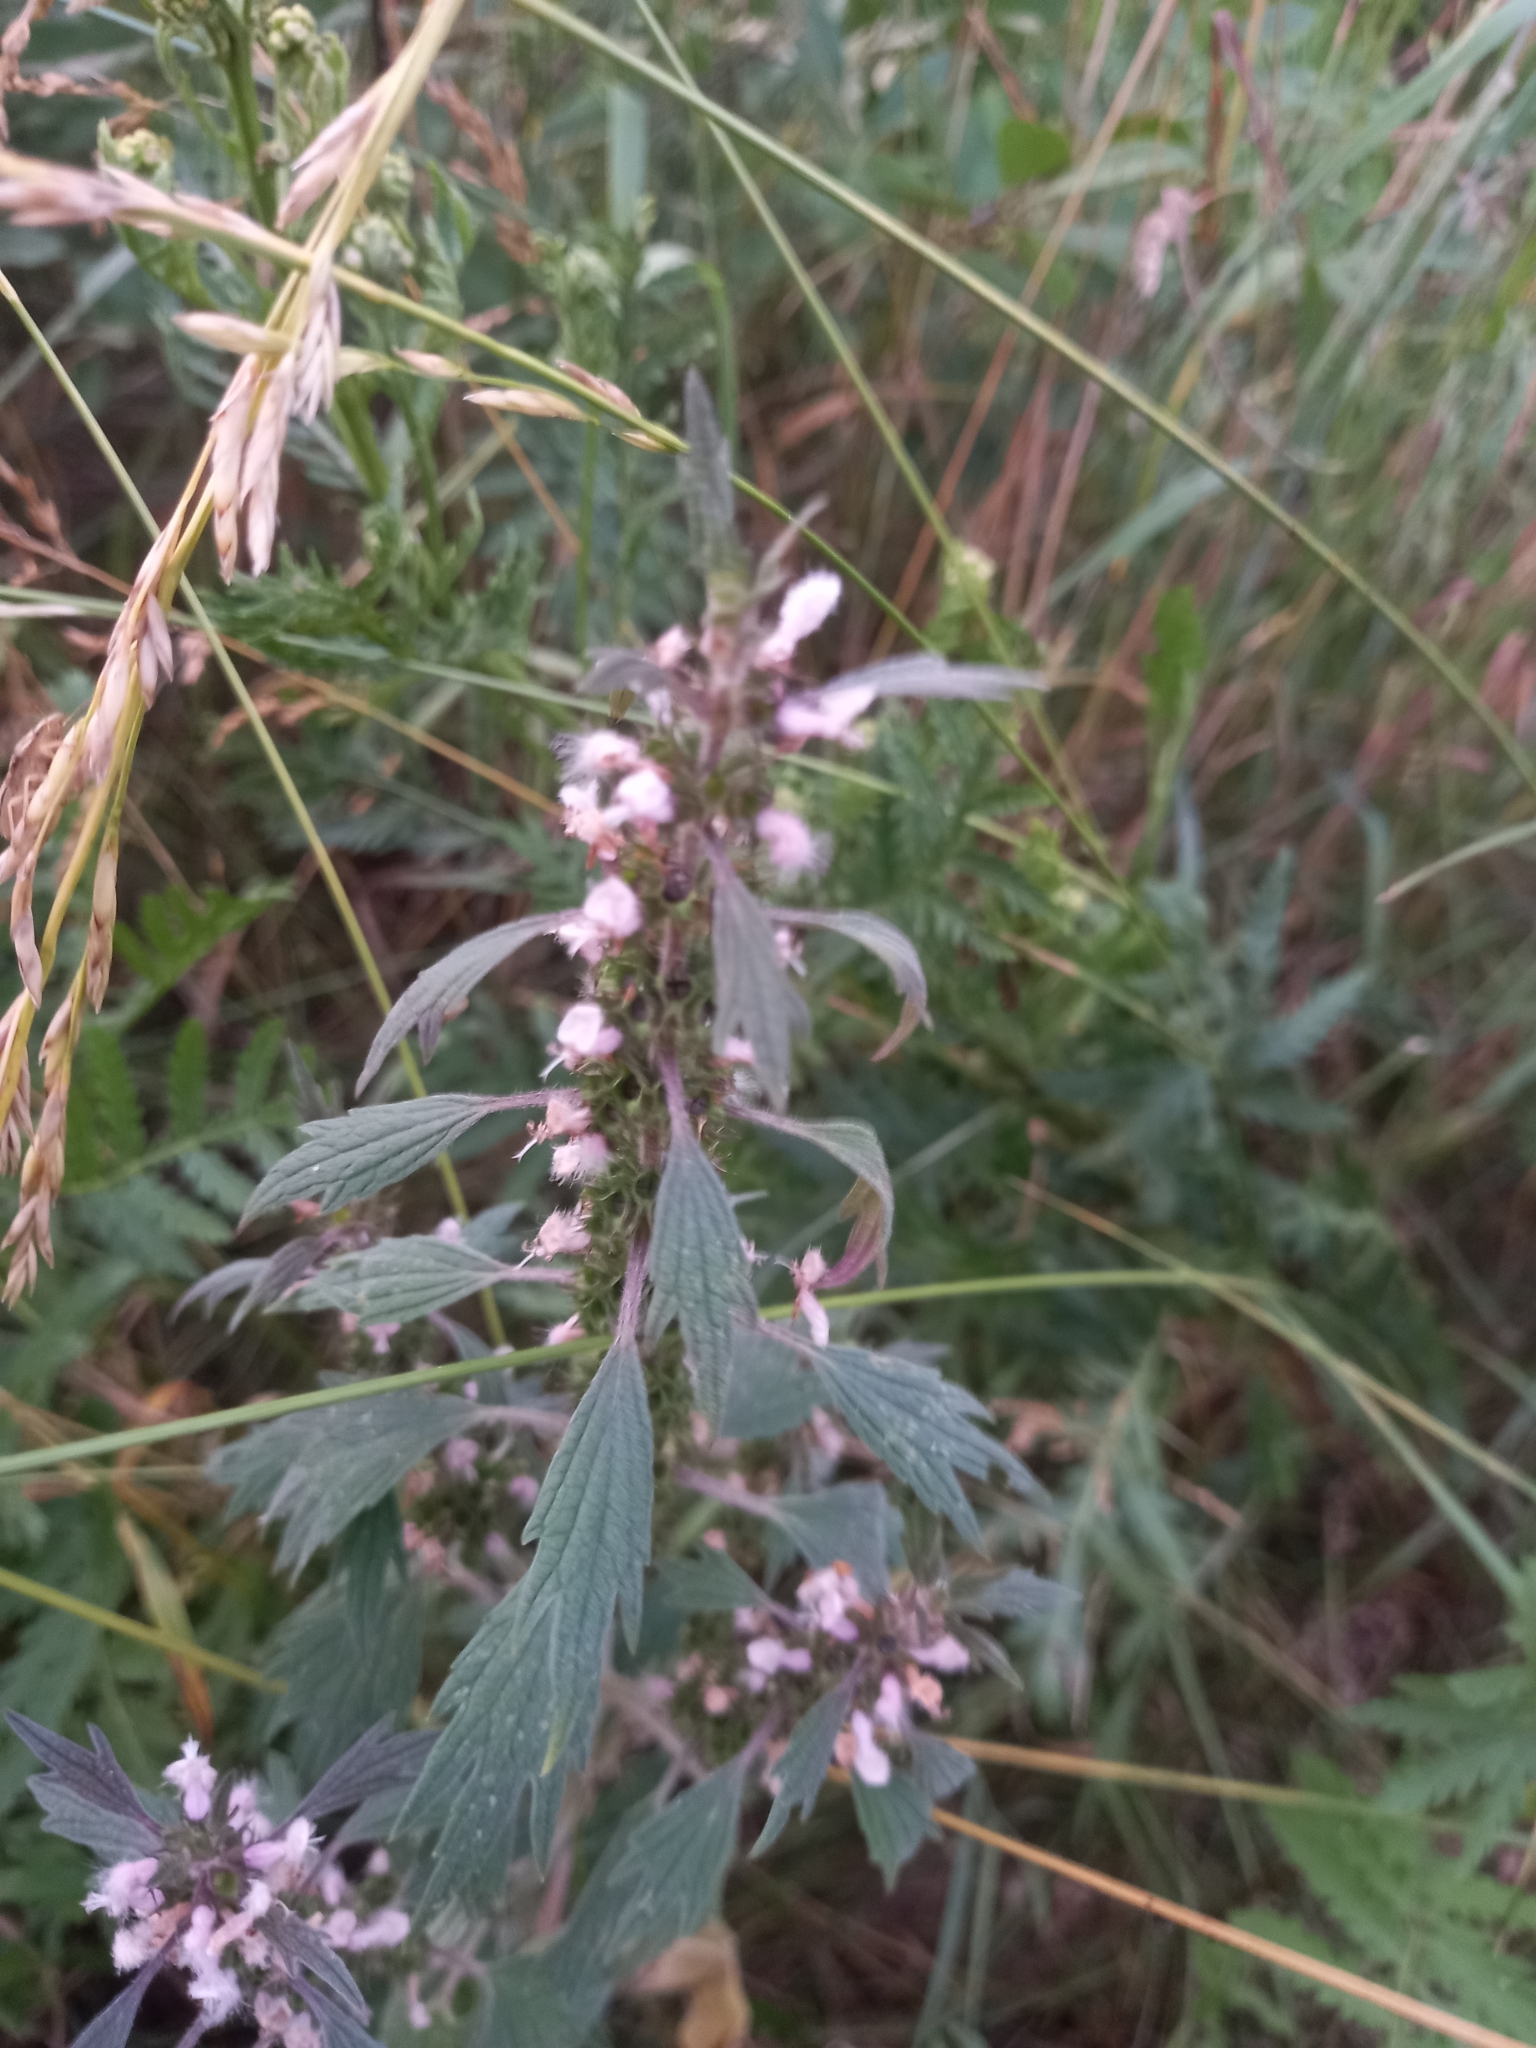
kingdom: Plantae
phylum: Tracheophyta
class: Magnoliopsida
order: Lamiales
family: Lamiaceae
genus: Leonurus
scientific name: Leonurus quinquelobatus
